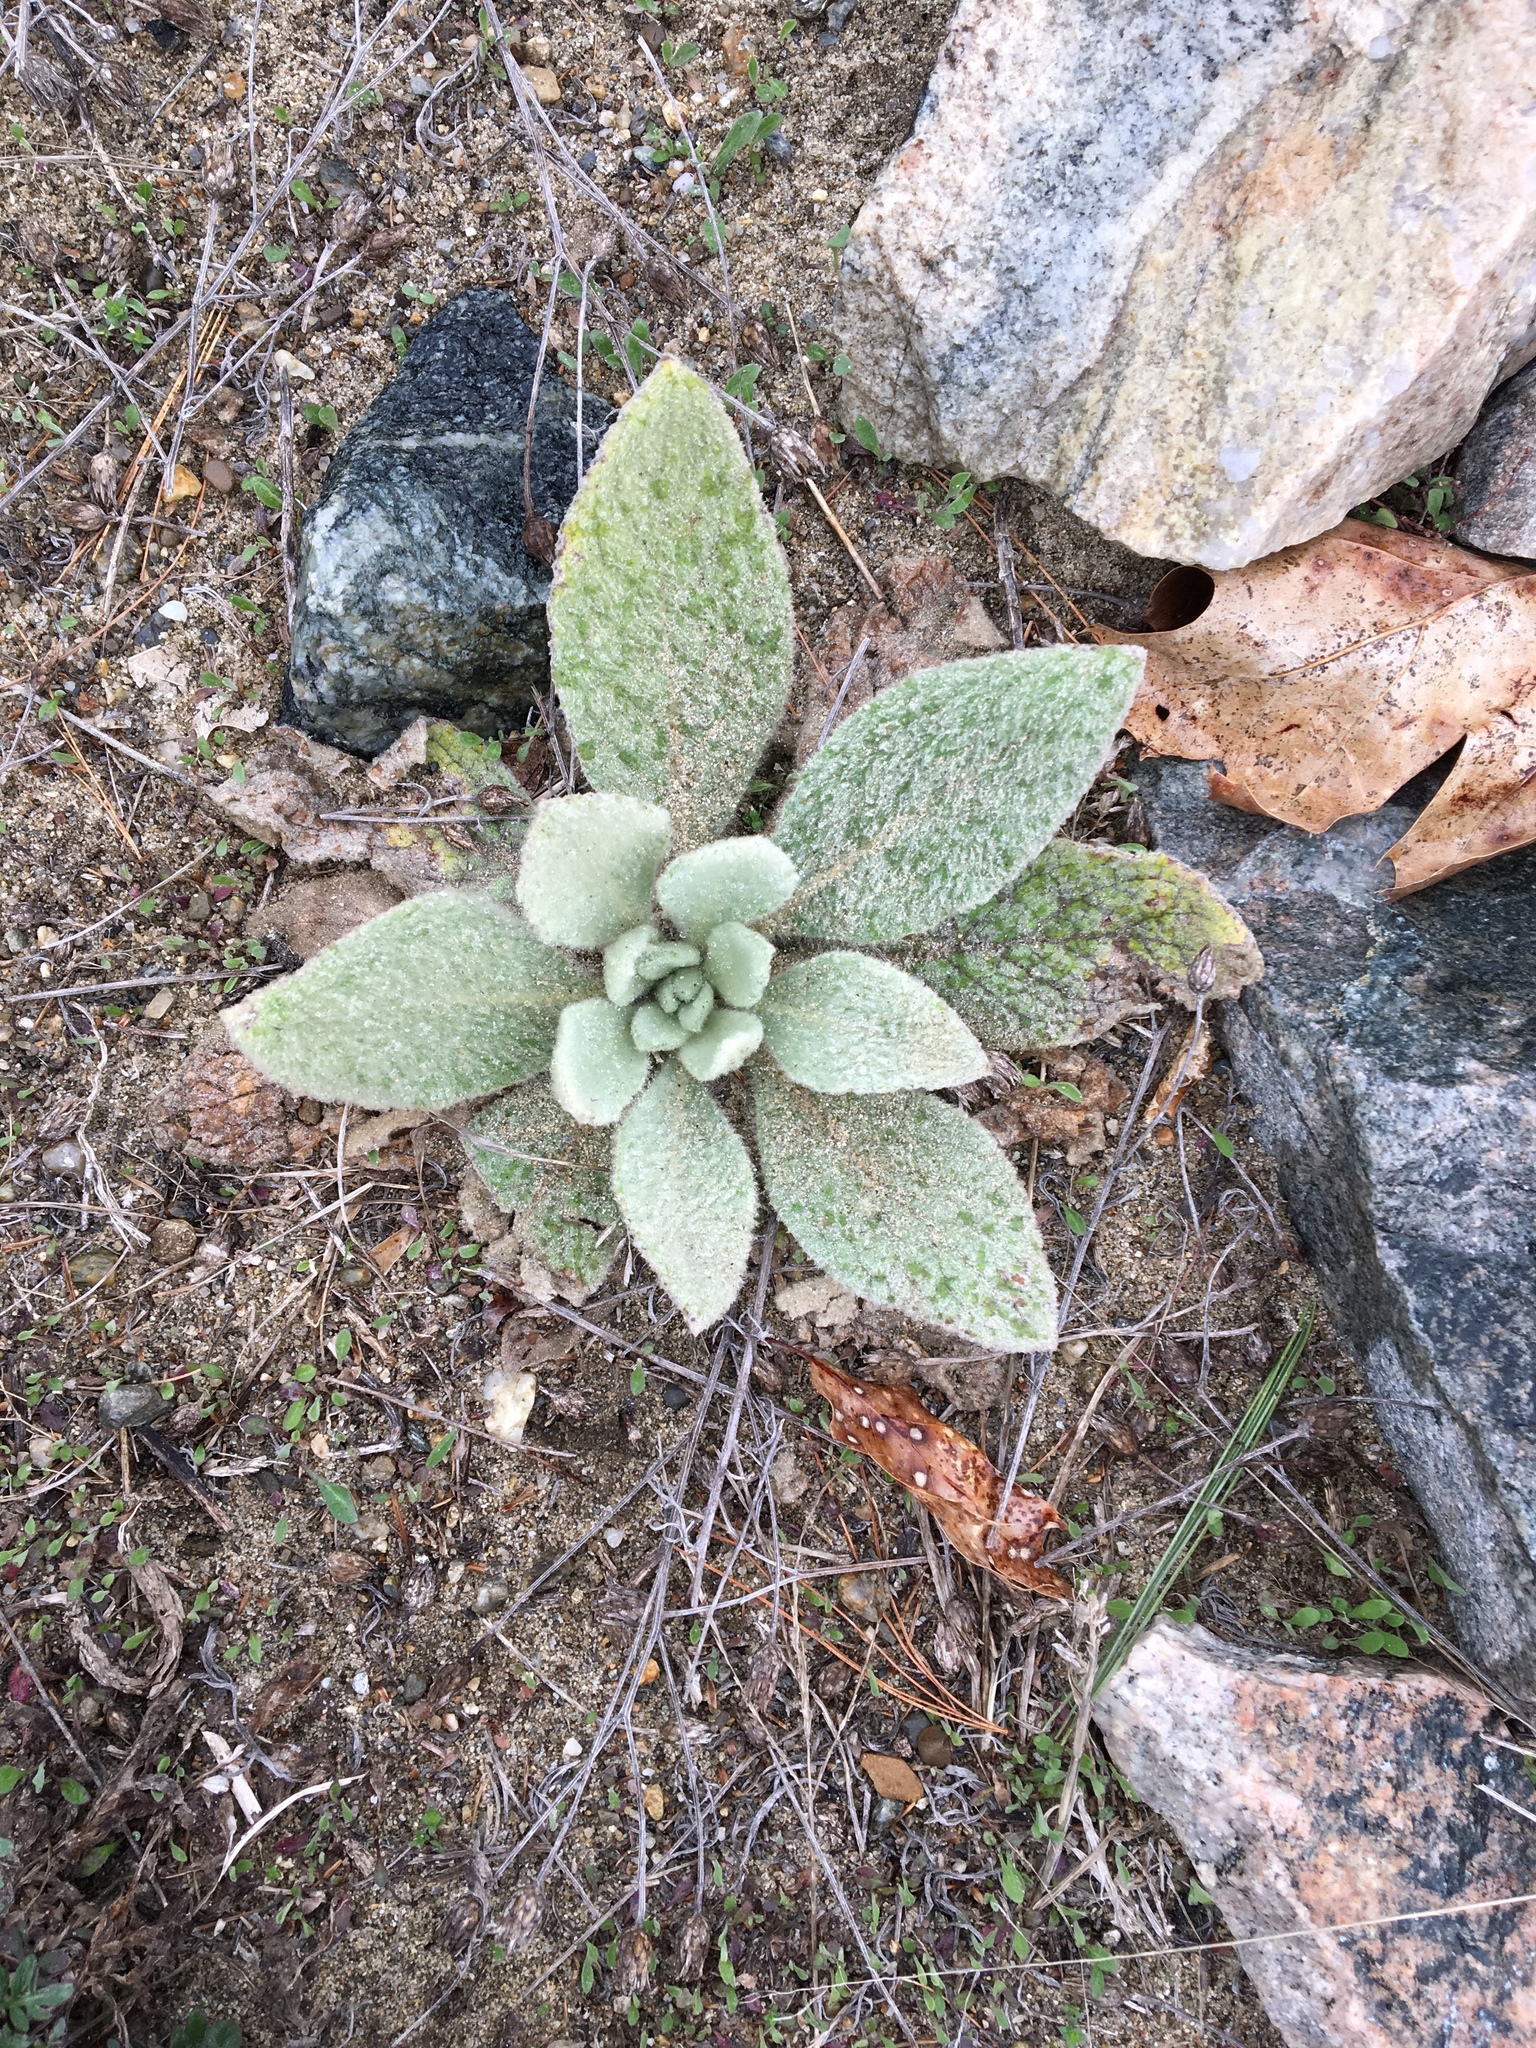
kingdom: Plantae
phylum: Tracheophyta
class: Magnoliopsida
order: Lamiales
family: Scrophulariaceae
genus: Verbascum
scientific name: Verbascum thapsus
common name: Common mullein
